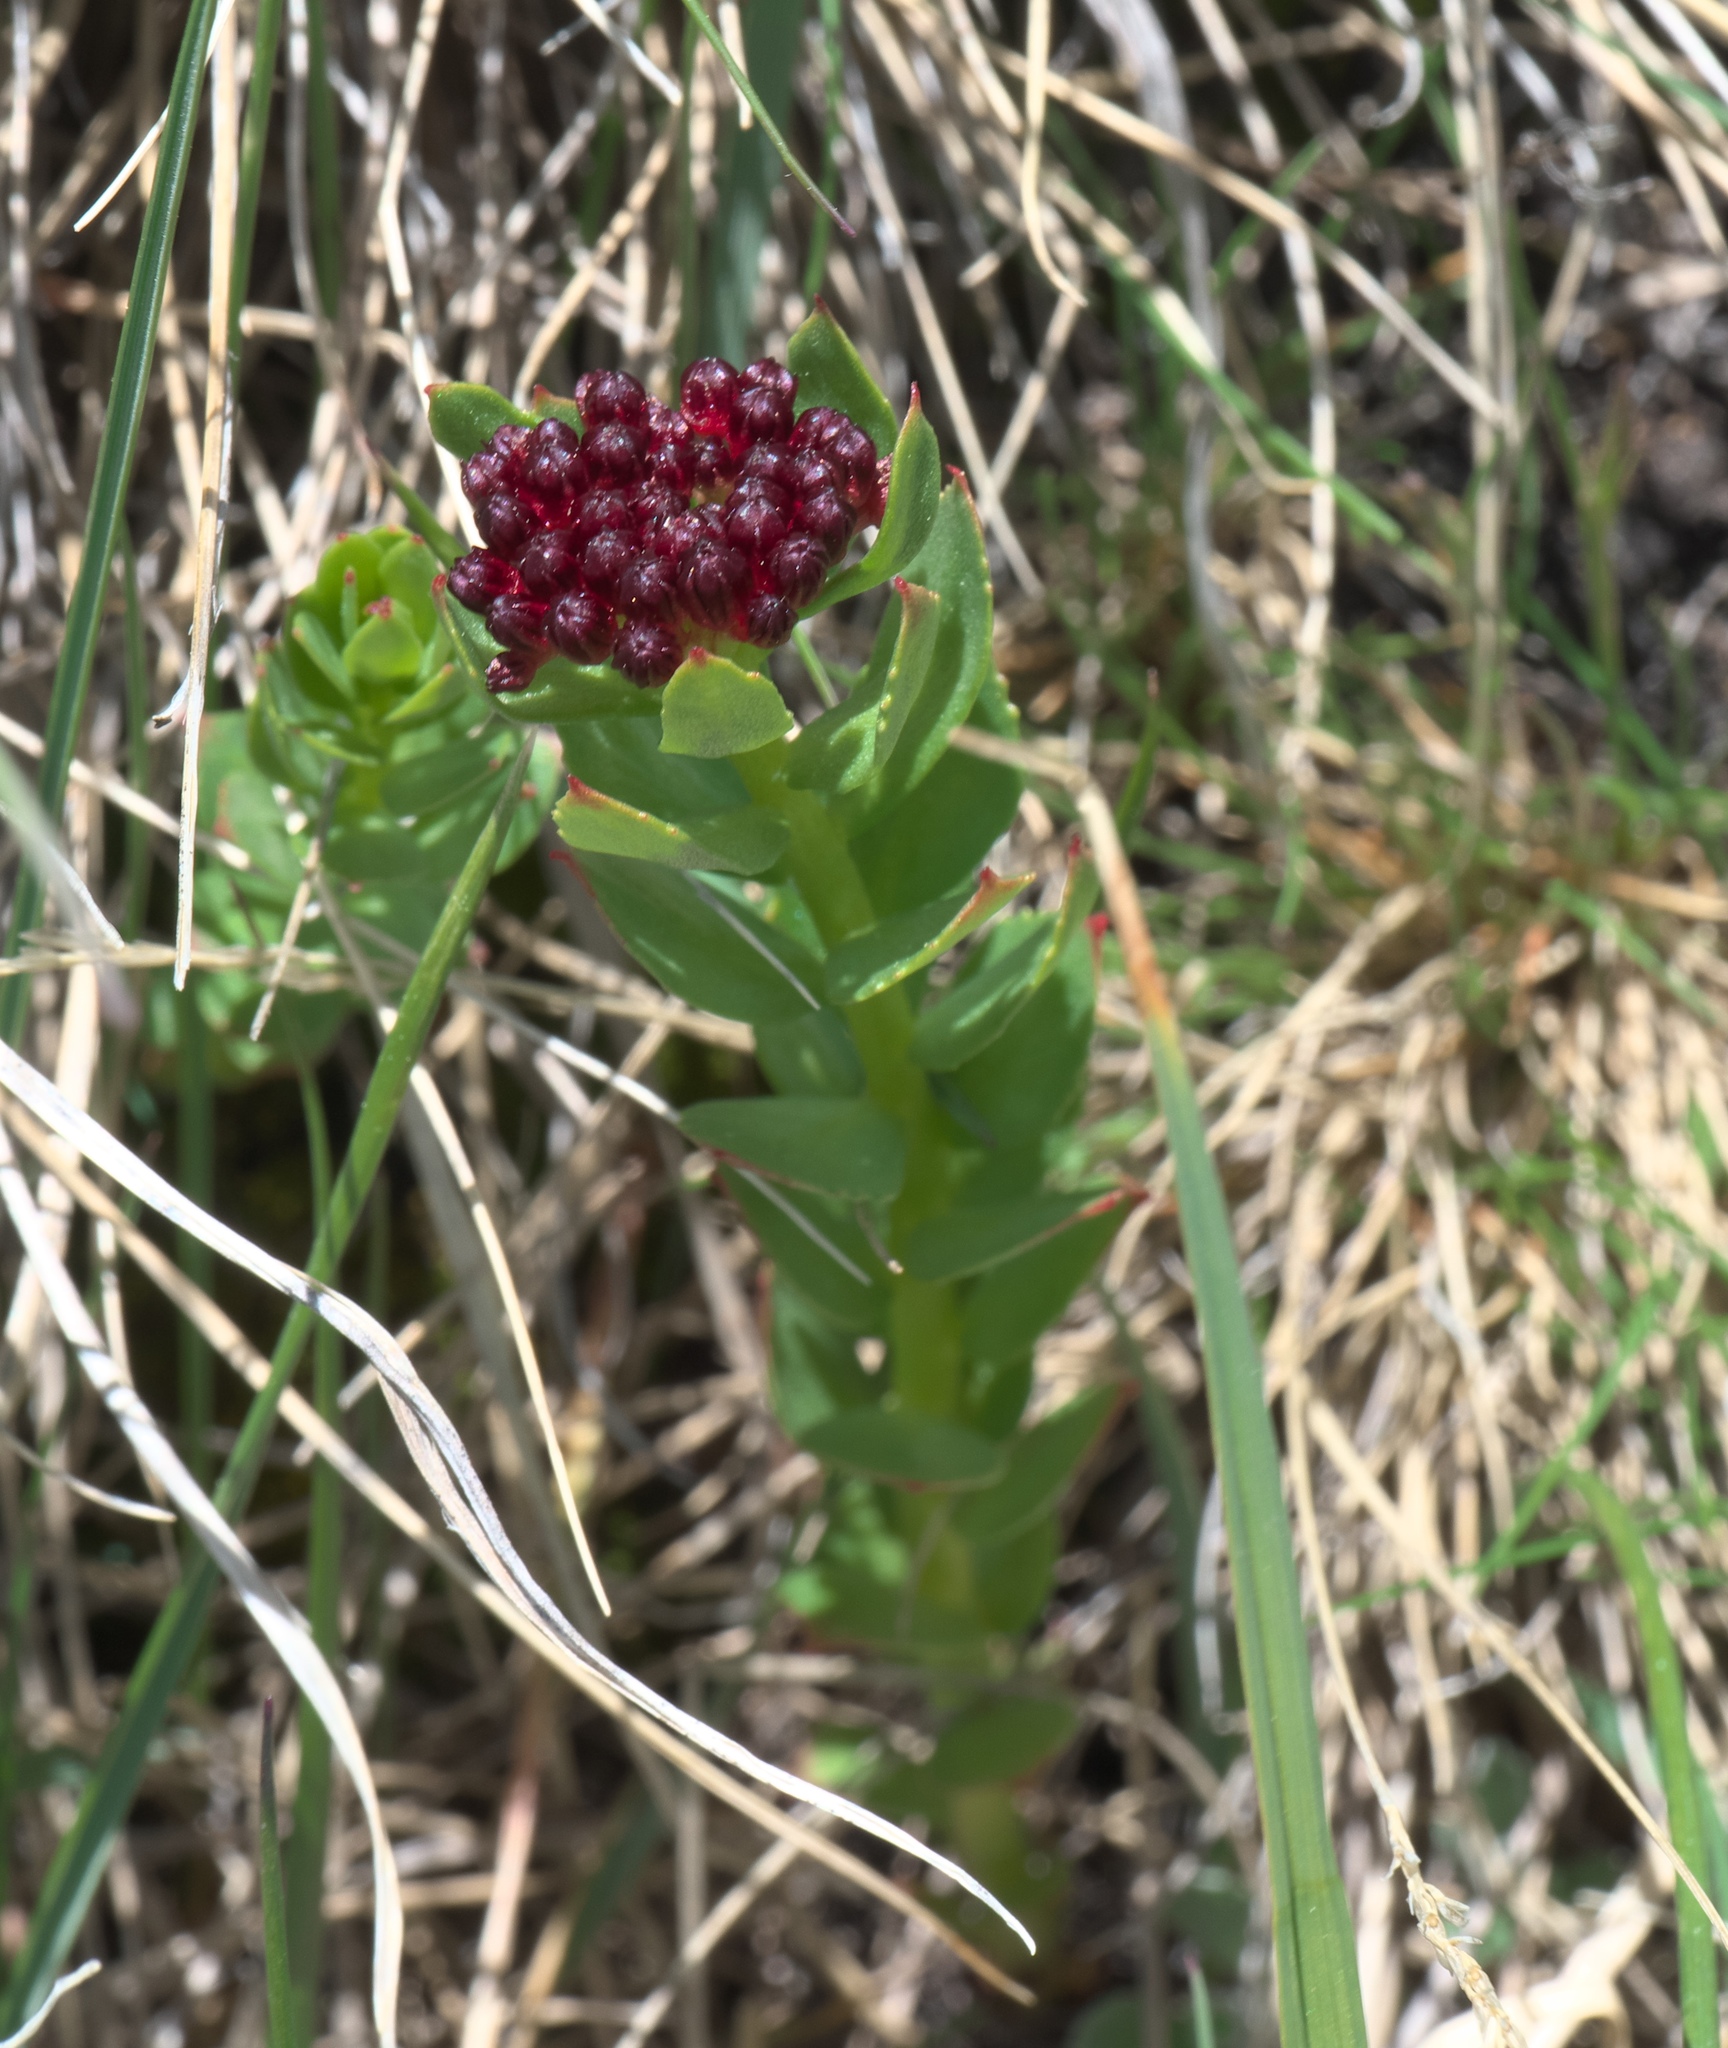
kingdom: Plantae
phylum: Tracheophyta
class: Magnoliopsida
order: Saxifragales
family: Crassulaceae
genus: Rhodiola
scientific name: Rhodiola integrifolia
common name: Western roseroot
